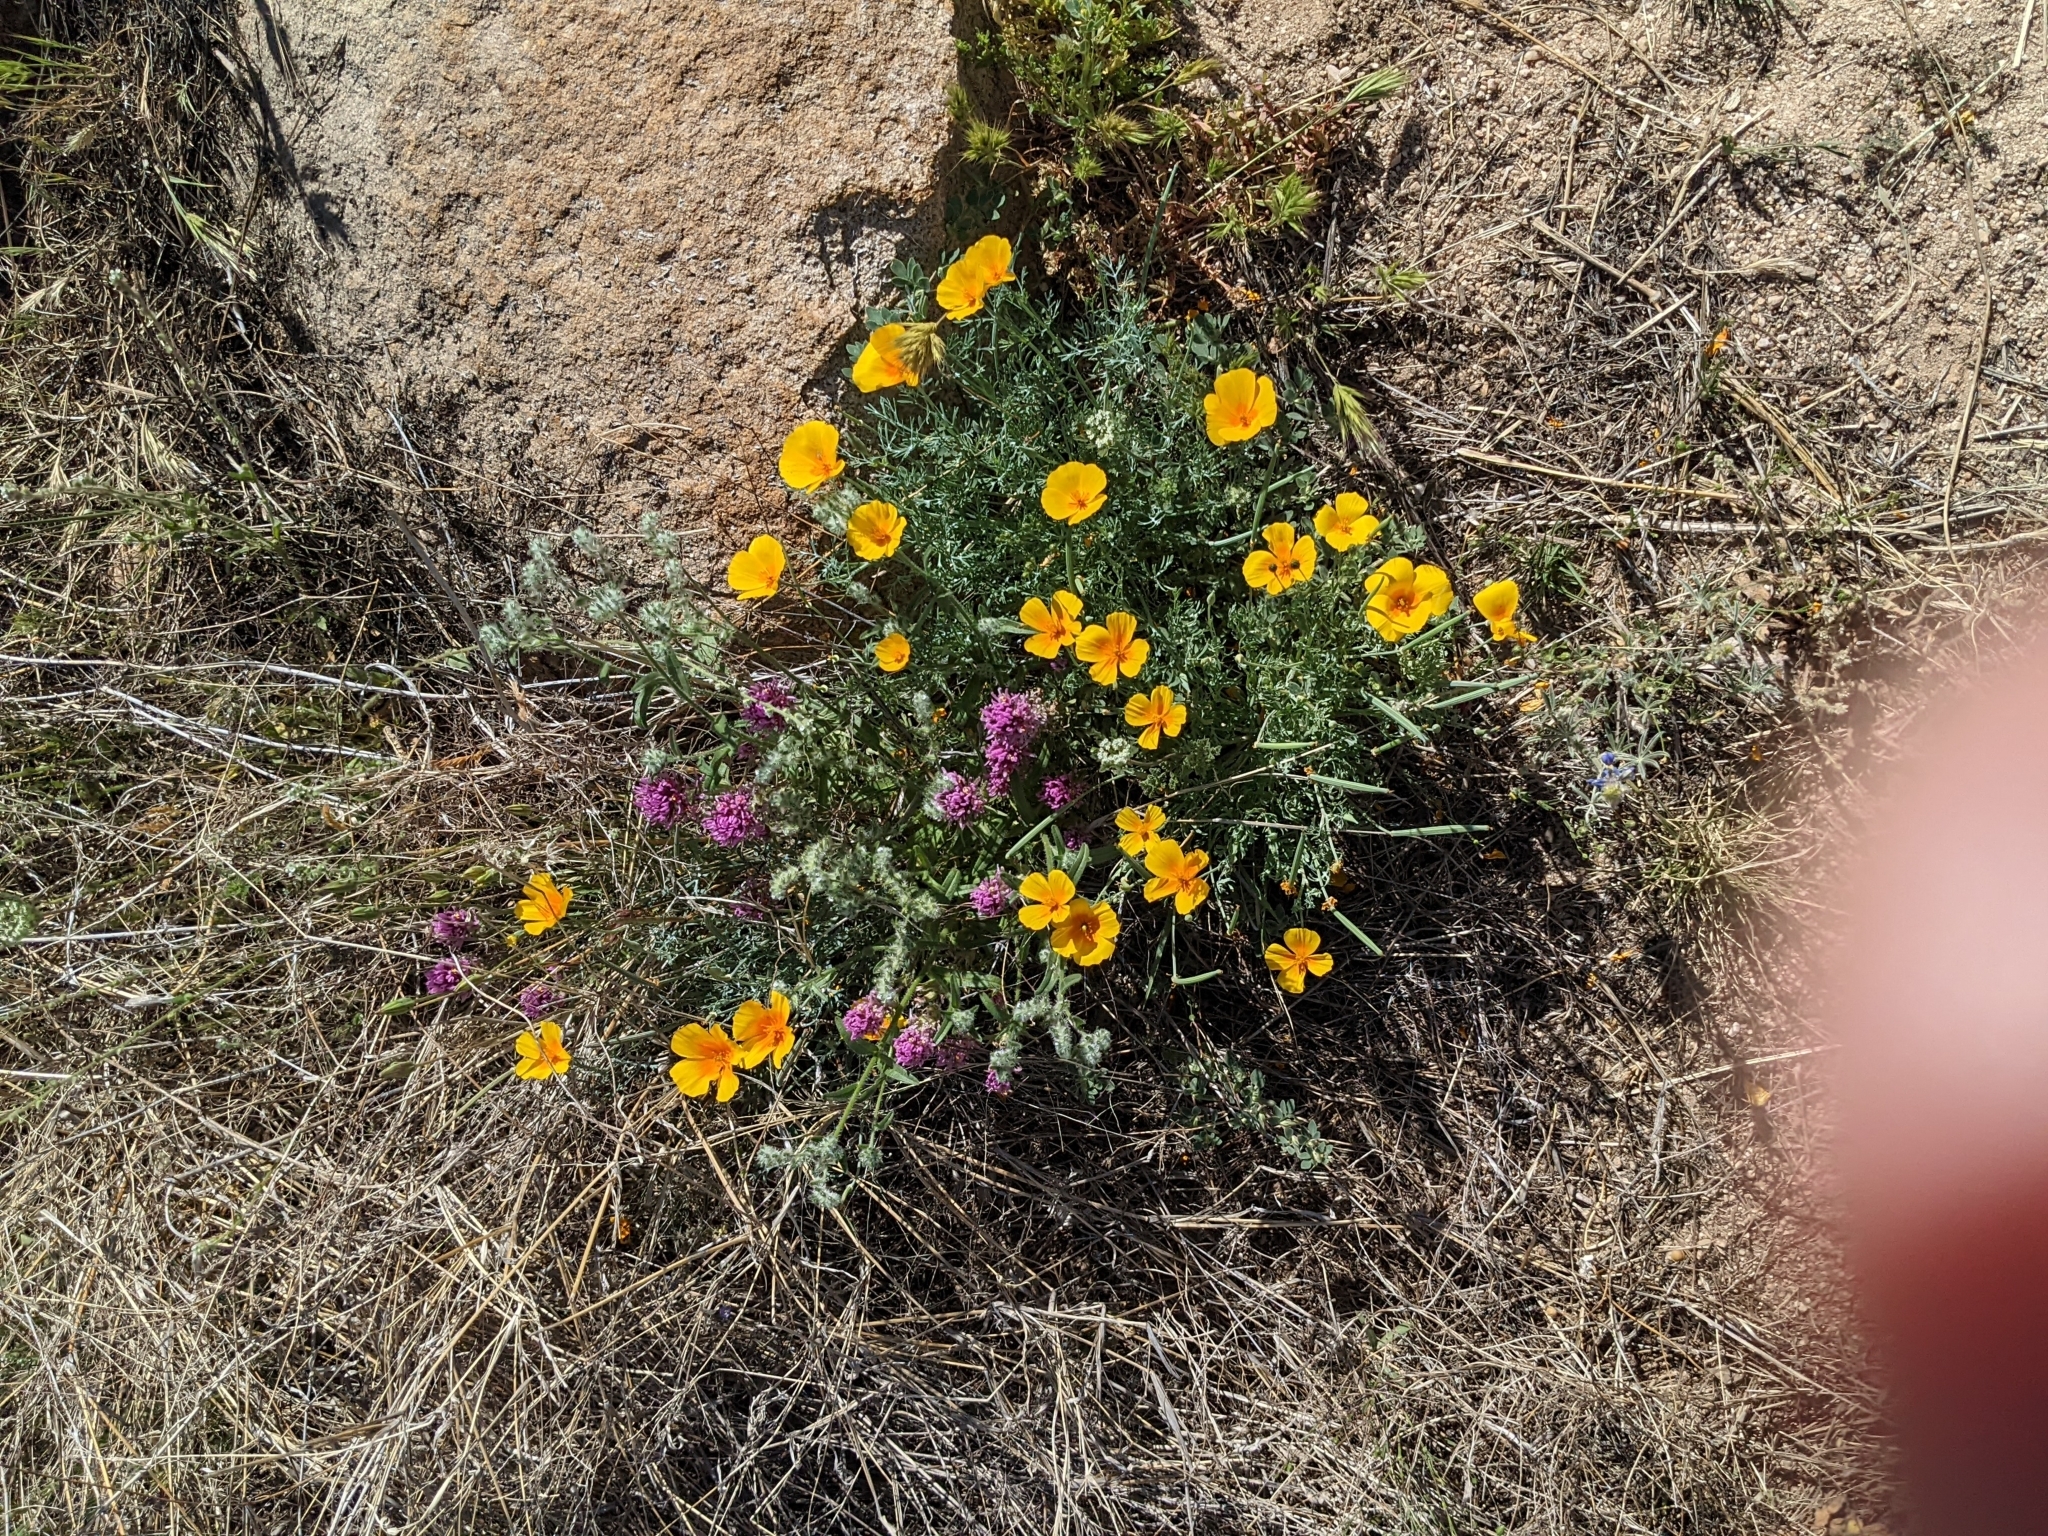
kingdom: Plantae
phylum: Tracheophyta
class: Magnoliopsida
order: Ranunculales
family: Papaveraceae
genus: Eschscholzia
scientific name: Eschscholzia californica
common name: California poppy
